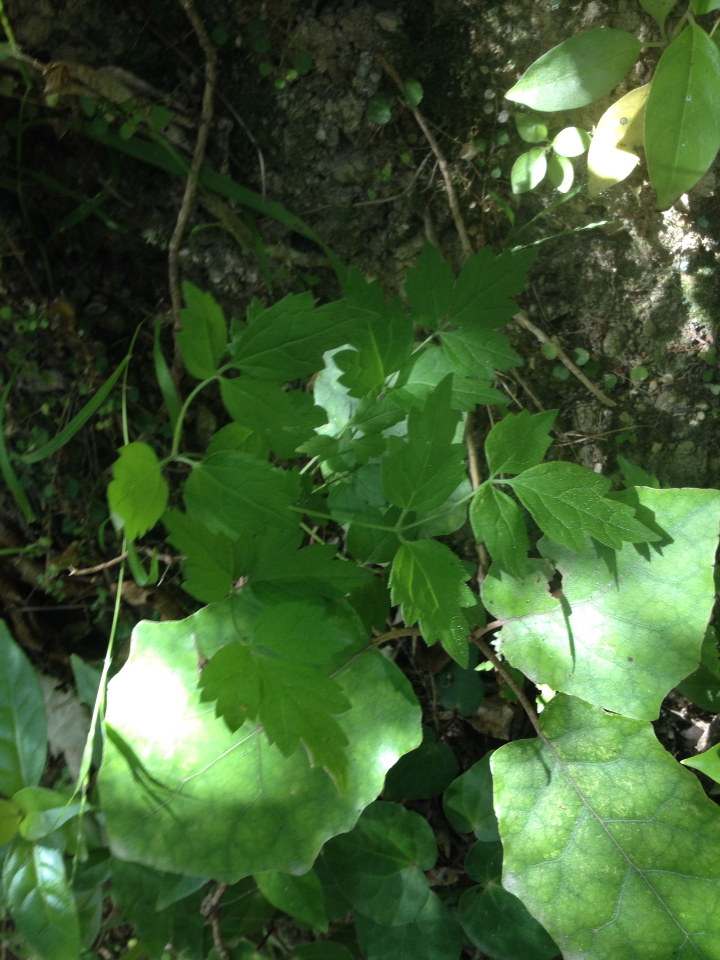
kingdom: Plantae
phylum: Tracheophyta
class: Magnoliopsida
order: Ranunculales
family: Ranunculaceae
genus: Clematis
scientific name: Clematis vitalba
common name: Evergreen clematis
